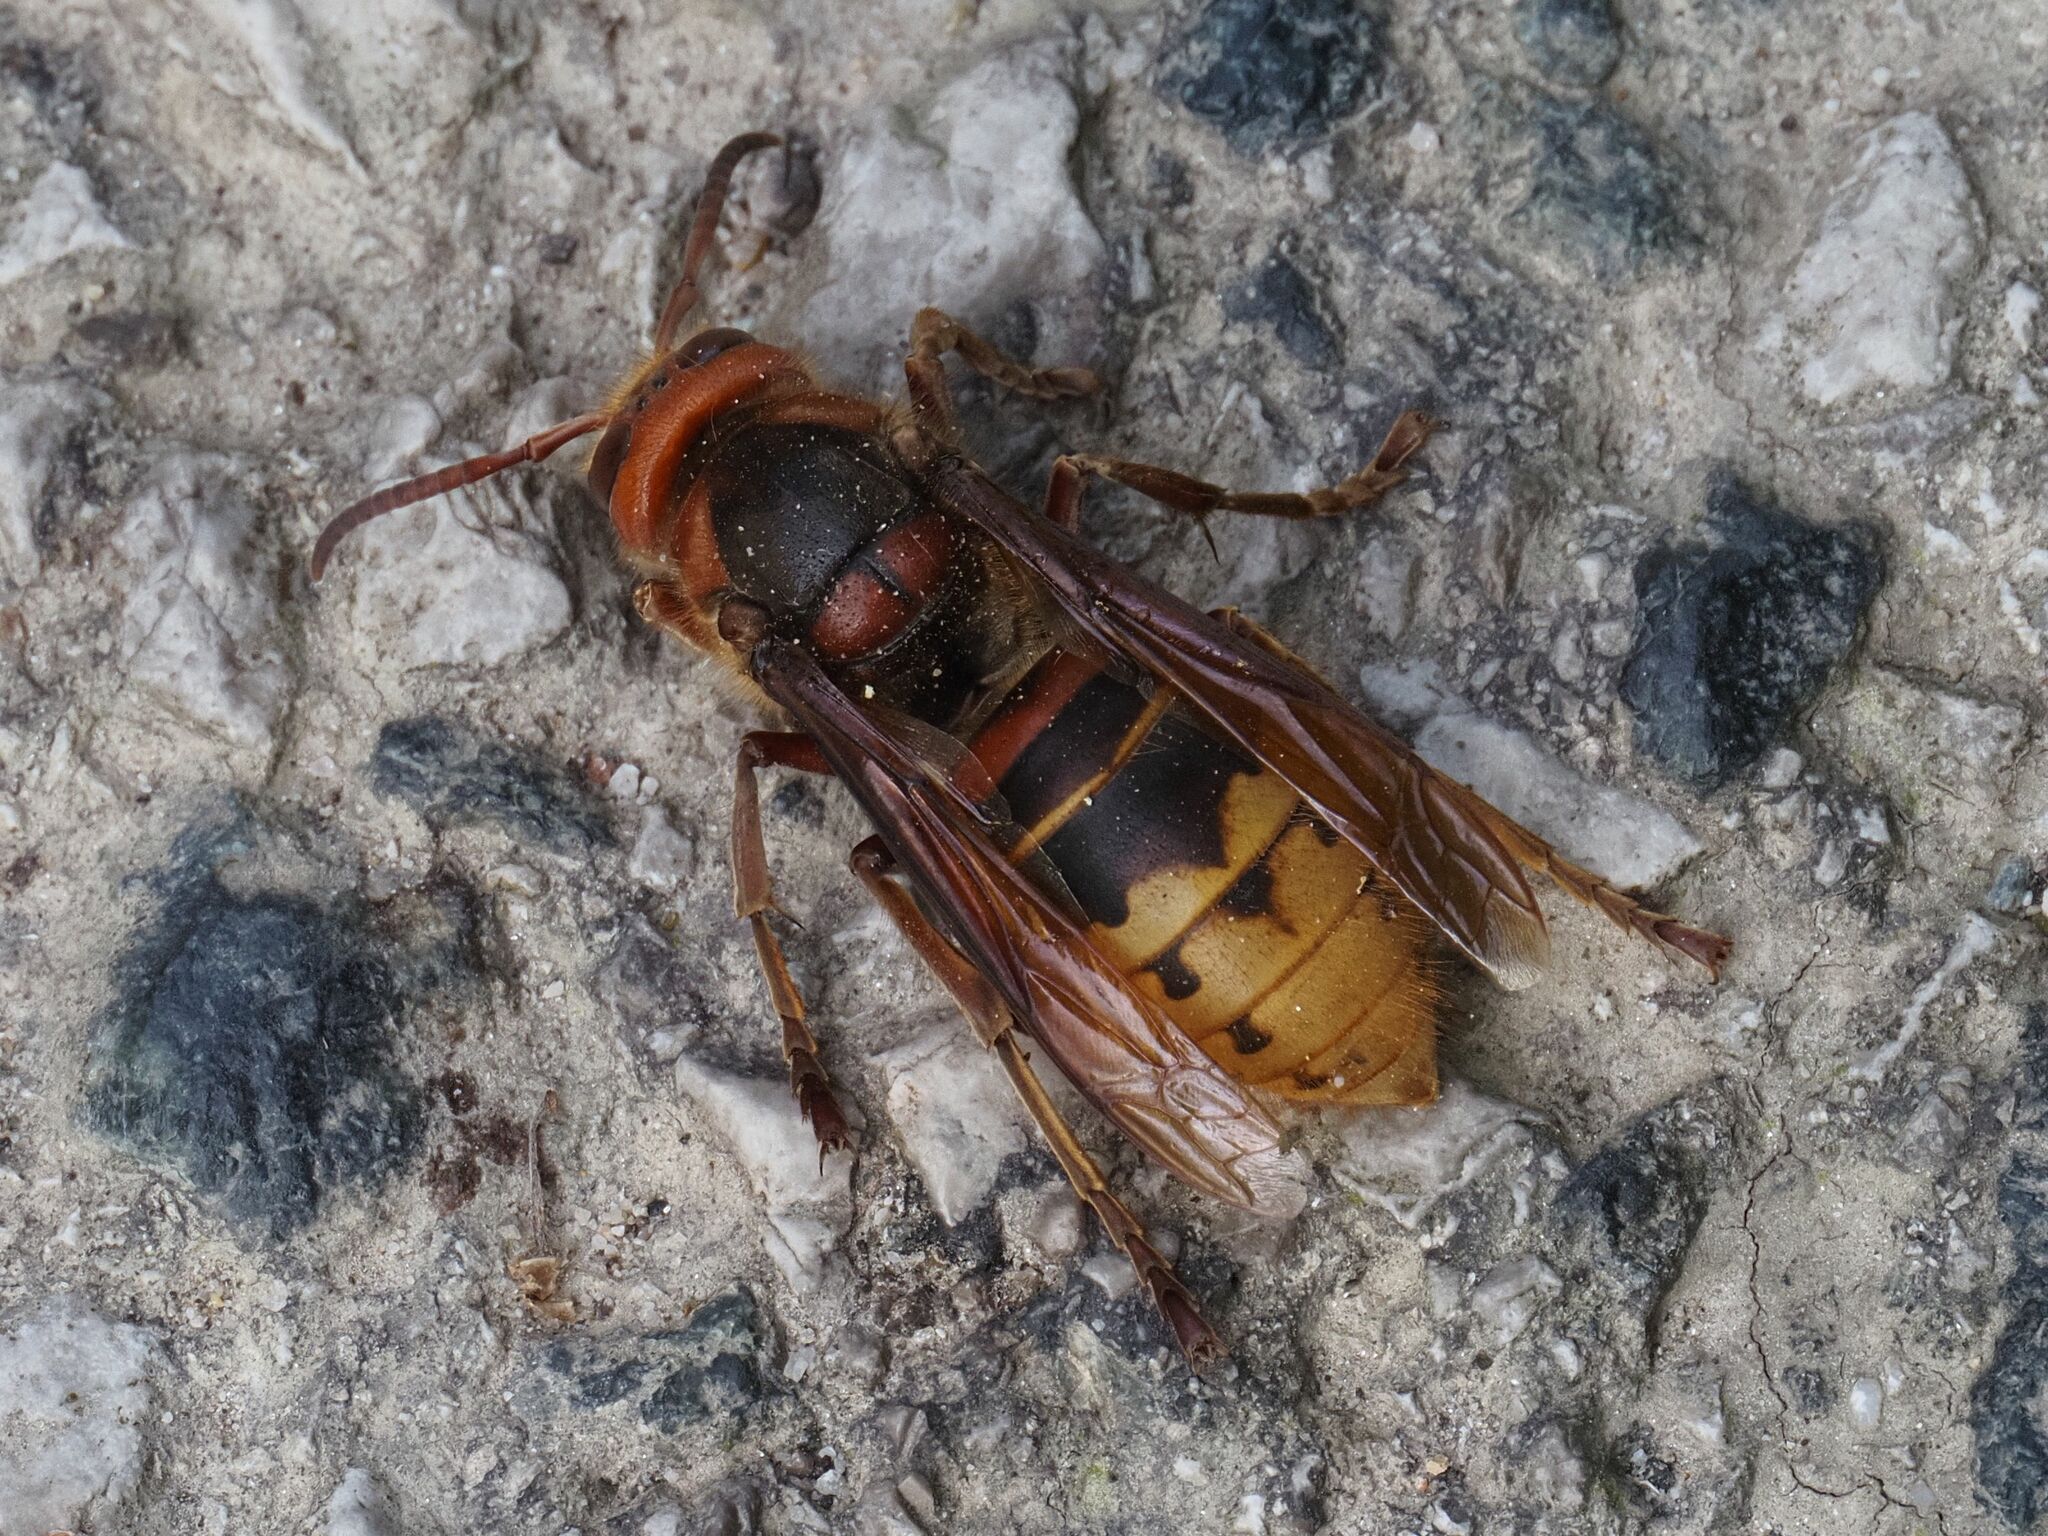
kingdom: Animalia
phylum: Arthropoda
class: Insecta
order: Hymenoptera
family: Vespidae
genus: Vespa
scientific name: Vespa crabro
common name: Hornet
